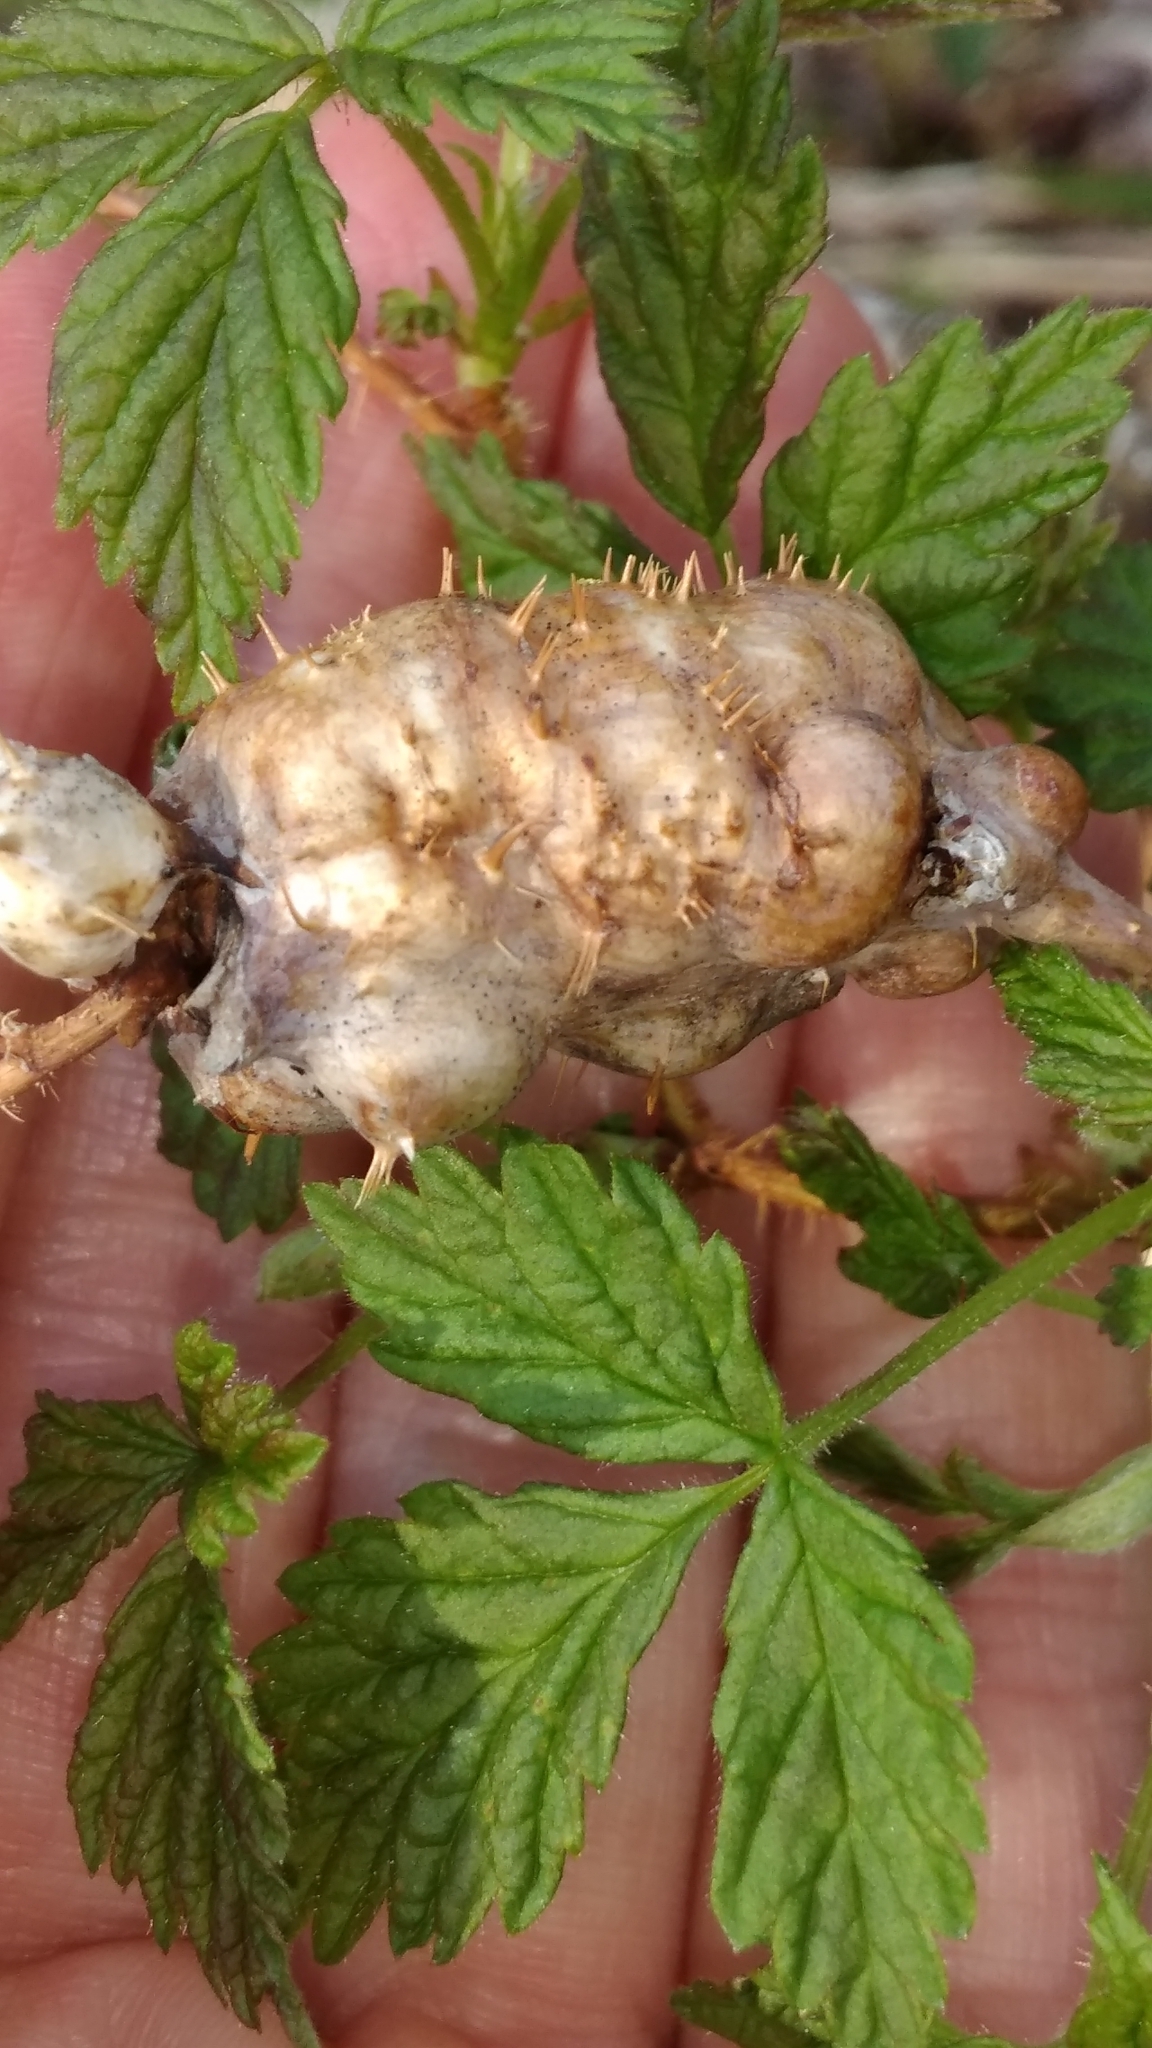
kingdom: Animalia
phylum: Arthropoda
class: Insecta
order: Hymenoptera
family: Cynipidae
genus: Diastrophus
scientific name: Diastrophus turgidus
